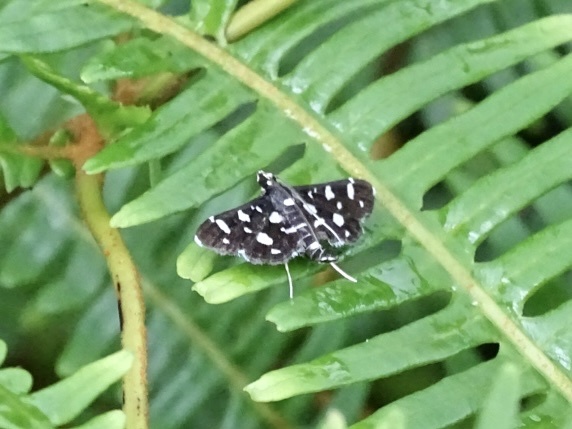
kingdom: Animalia
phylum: Arthropoda
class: Insecta
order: Lepidoptera
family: Crambidae
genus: Bocchoris
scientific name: Bocchoris inspersalis
